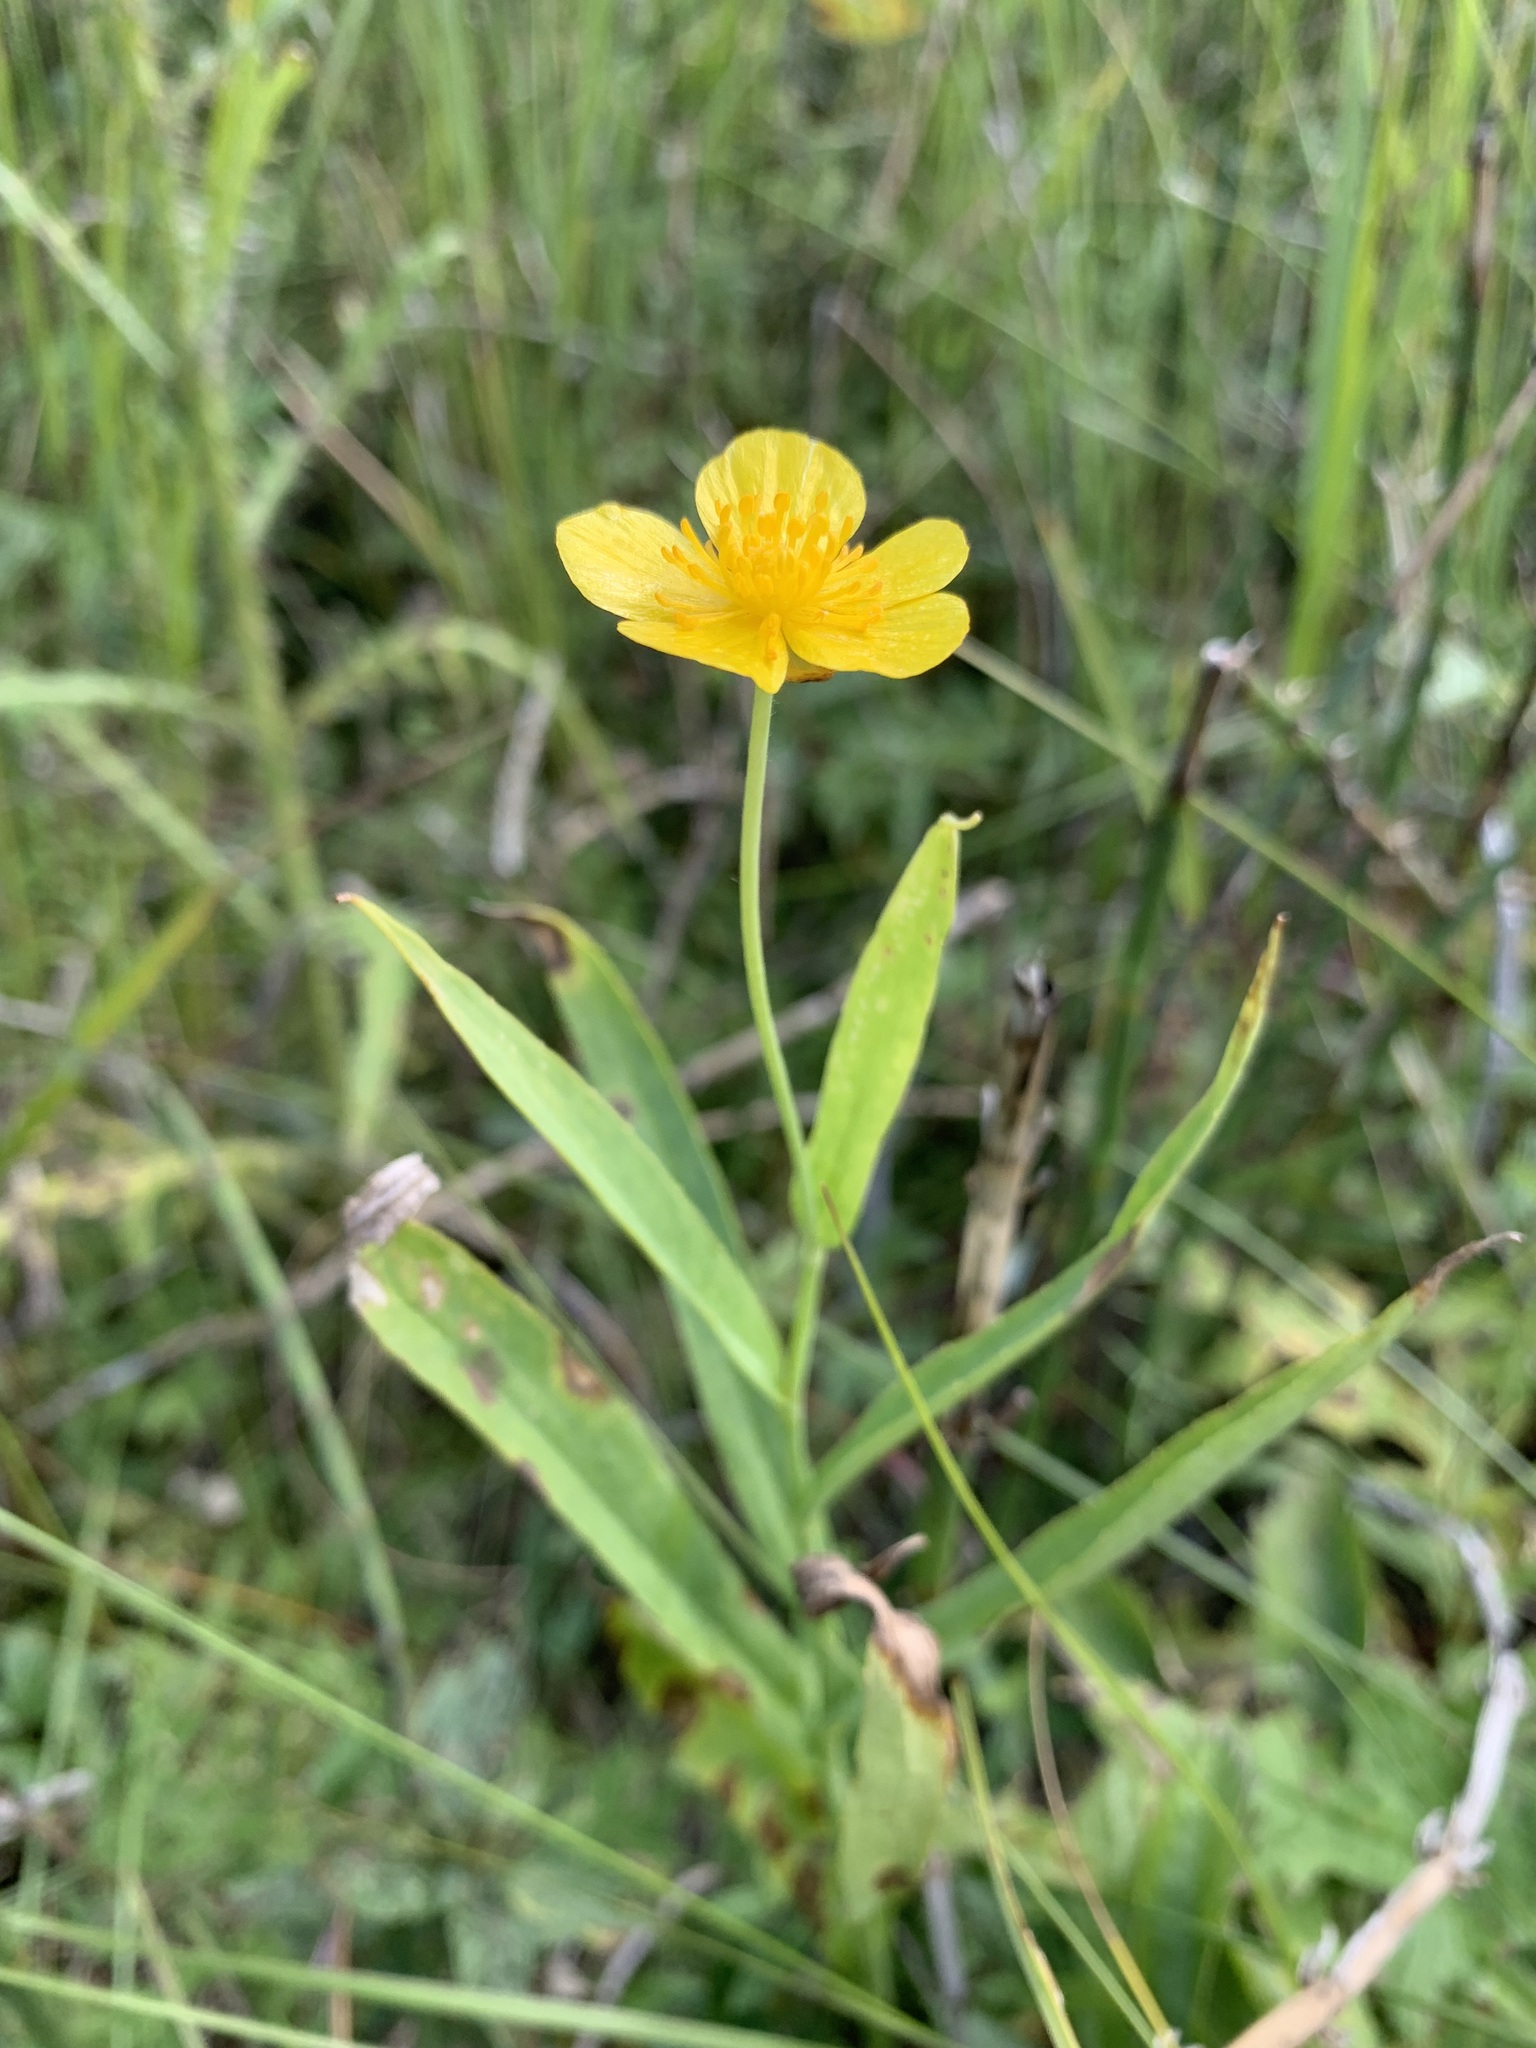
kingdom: Plantae
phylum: Tracheophyta
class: Magnoliopsida
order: Ranunculales
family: Ranunculaceae
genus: Ranunculus
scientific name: Ranunculus lingua
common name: Greater spearwort
